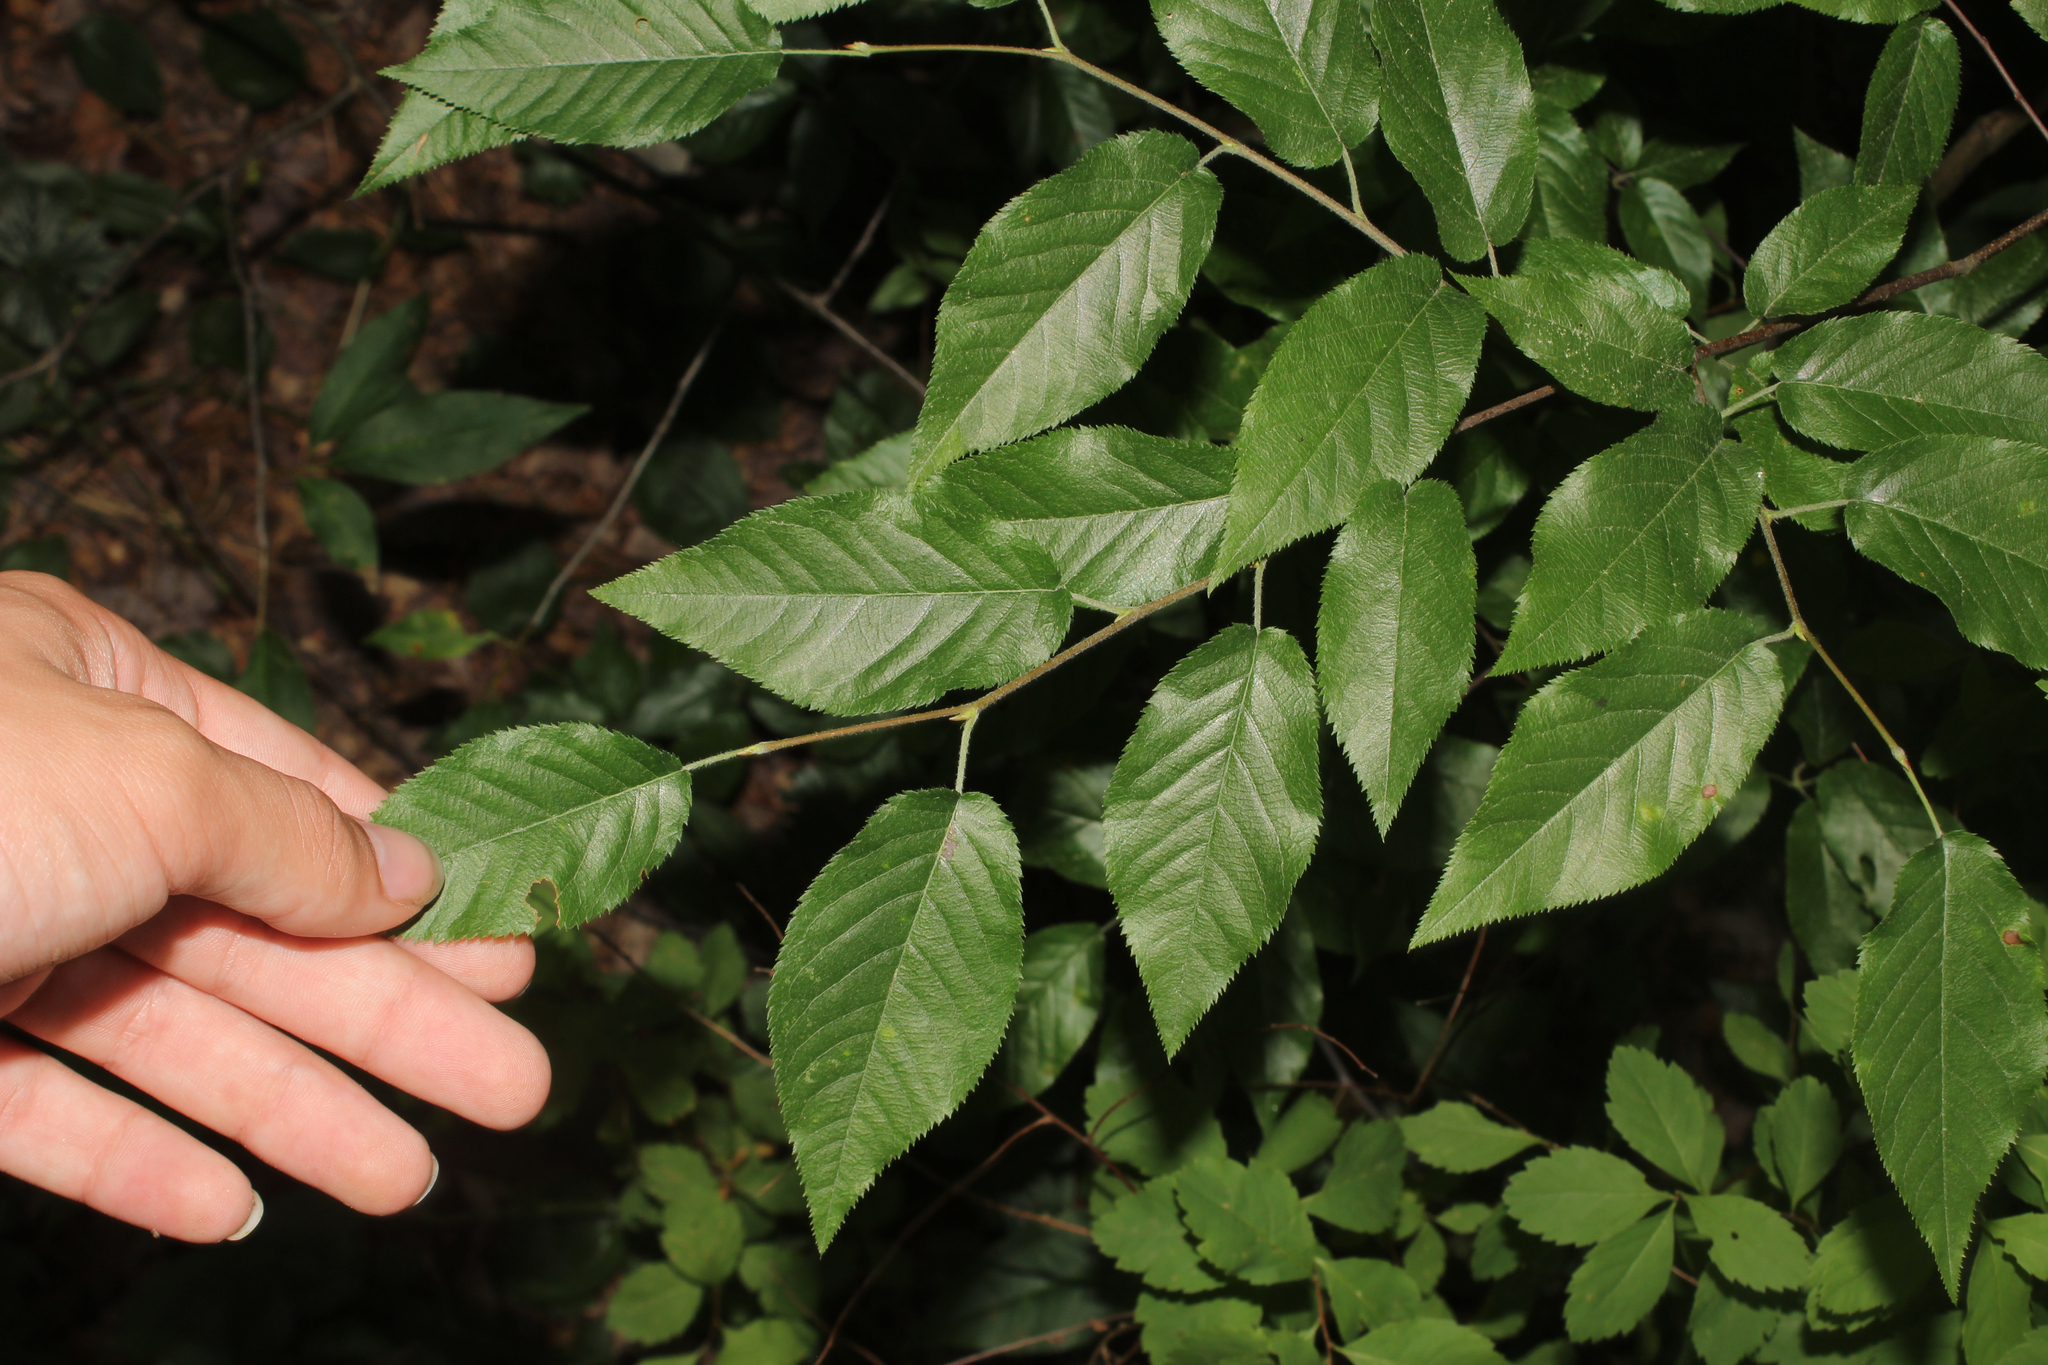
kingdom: Plantae
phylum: Tracheophyta
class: Magnoliopsida
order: Fagales
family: Betulaceae
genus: Ostrya
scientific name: Ostrya virginiana
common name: Ironwood
